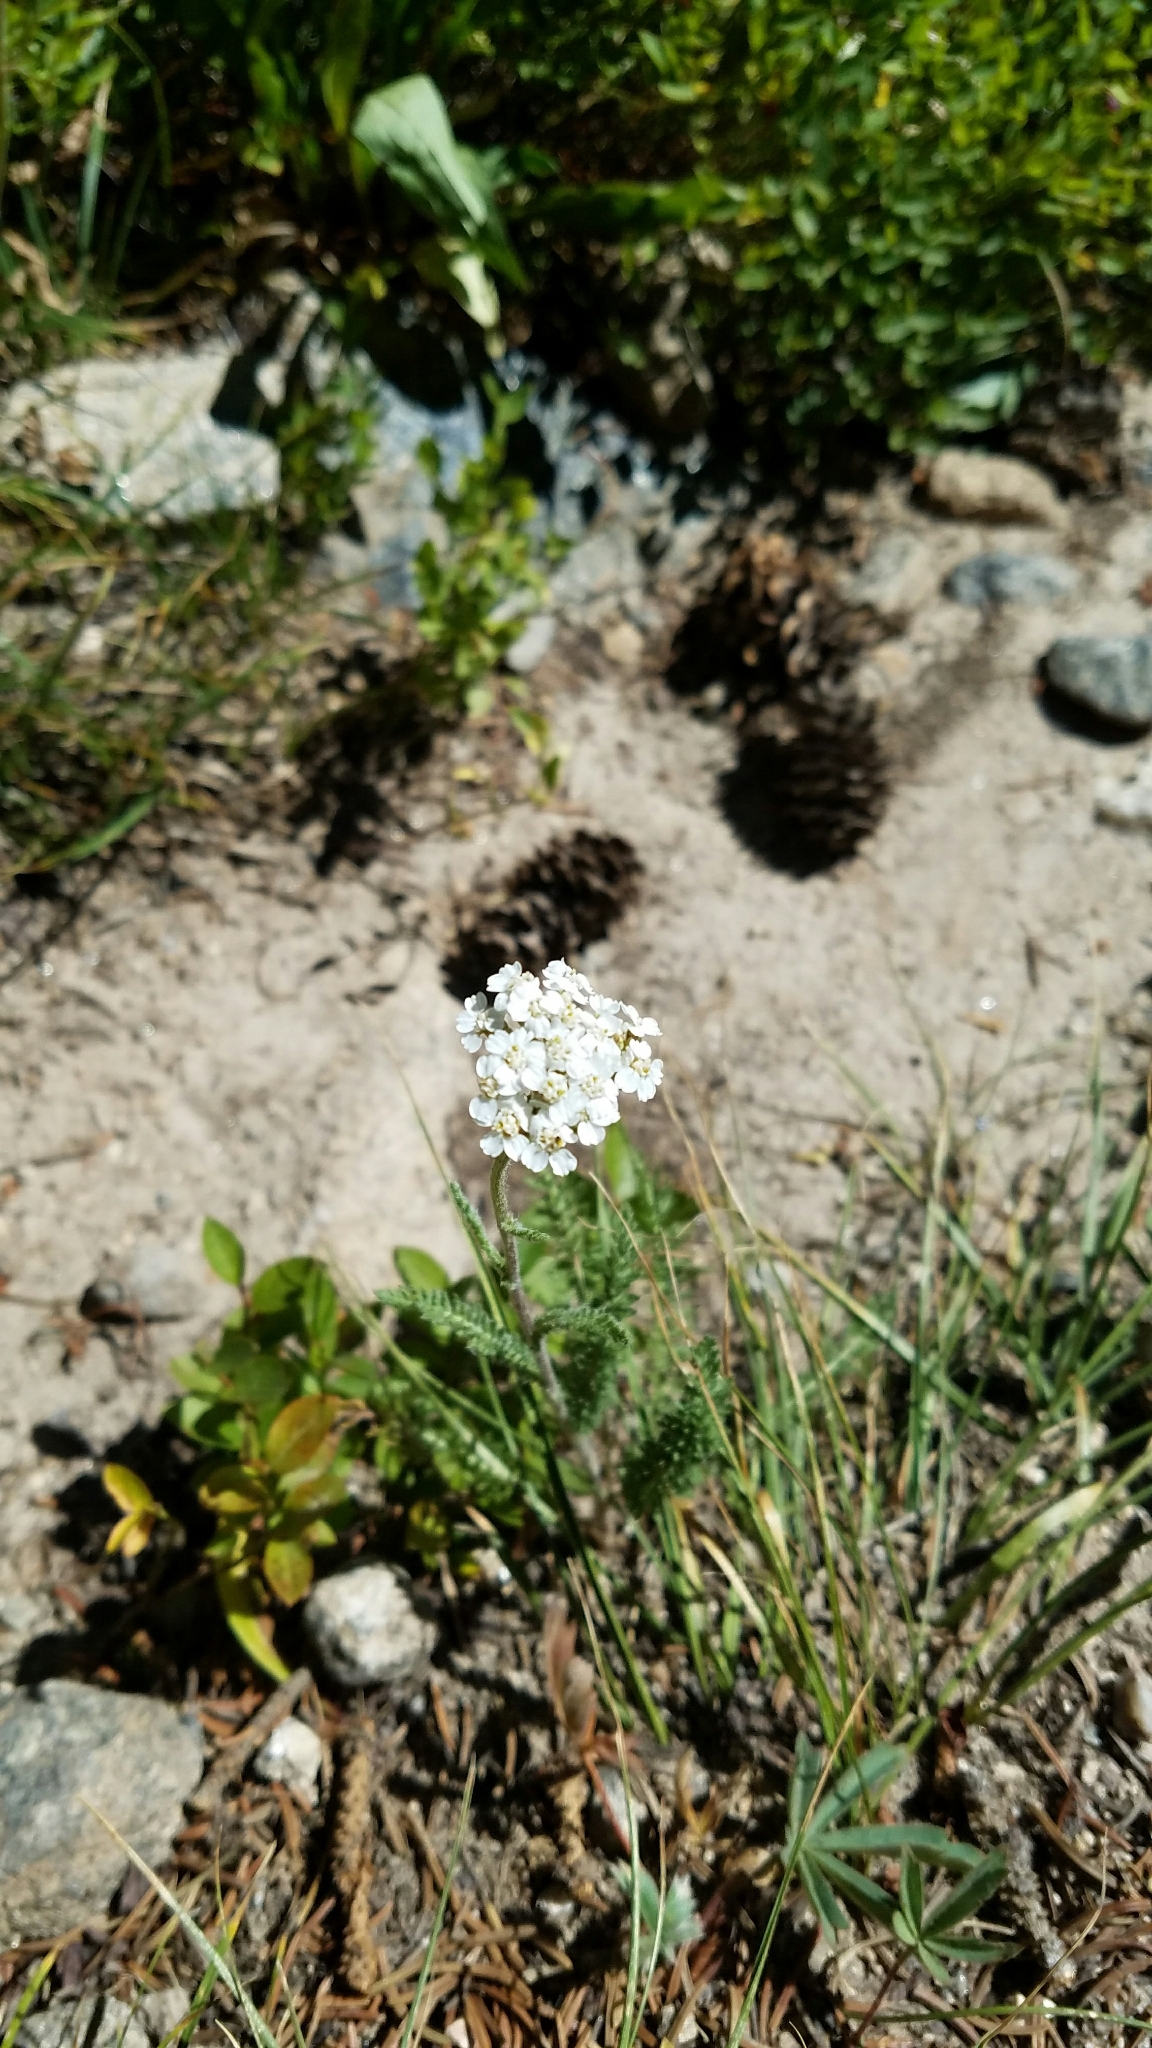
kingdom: Plantae
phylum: Tracheophyta
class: Magnoliopsida
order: Asterales
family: Asteraceae
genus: Achillea
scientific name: Achillea millefolium
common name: Yarrow
